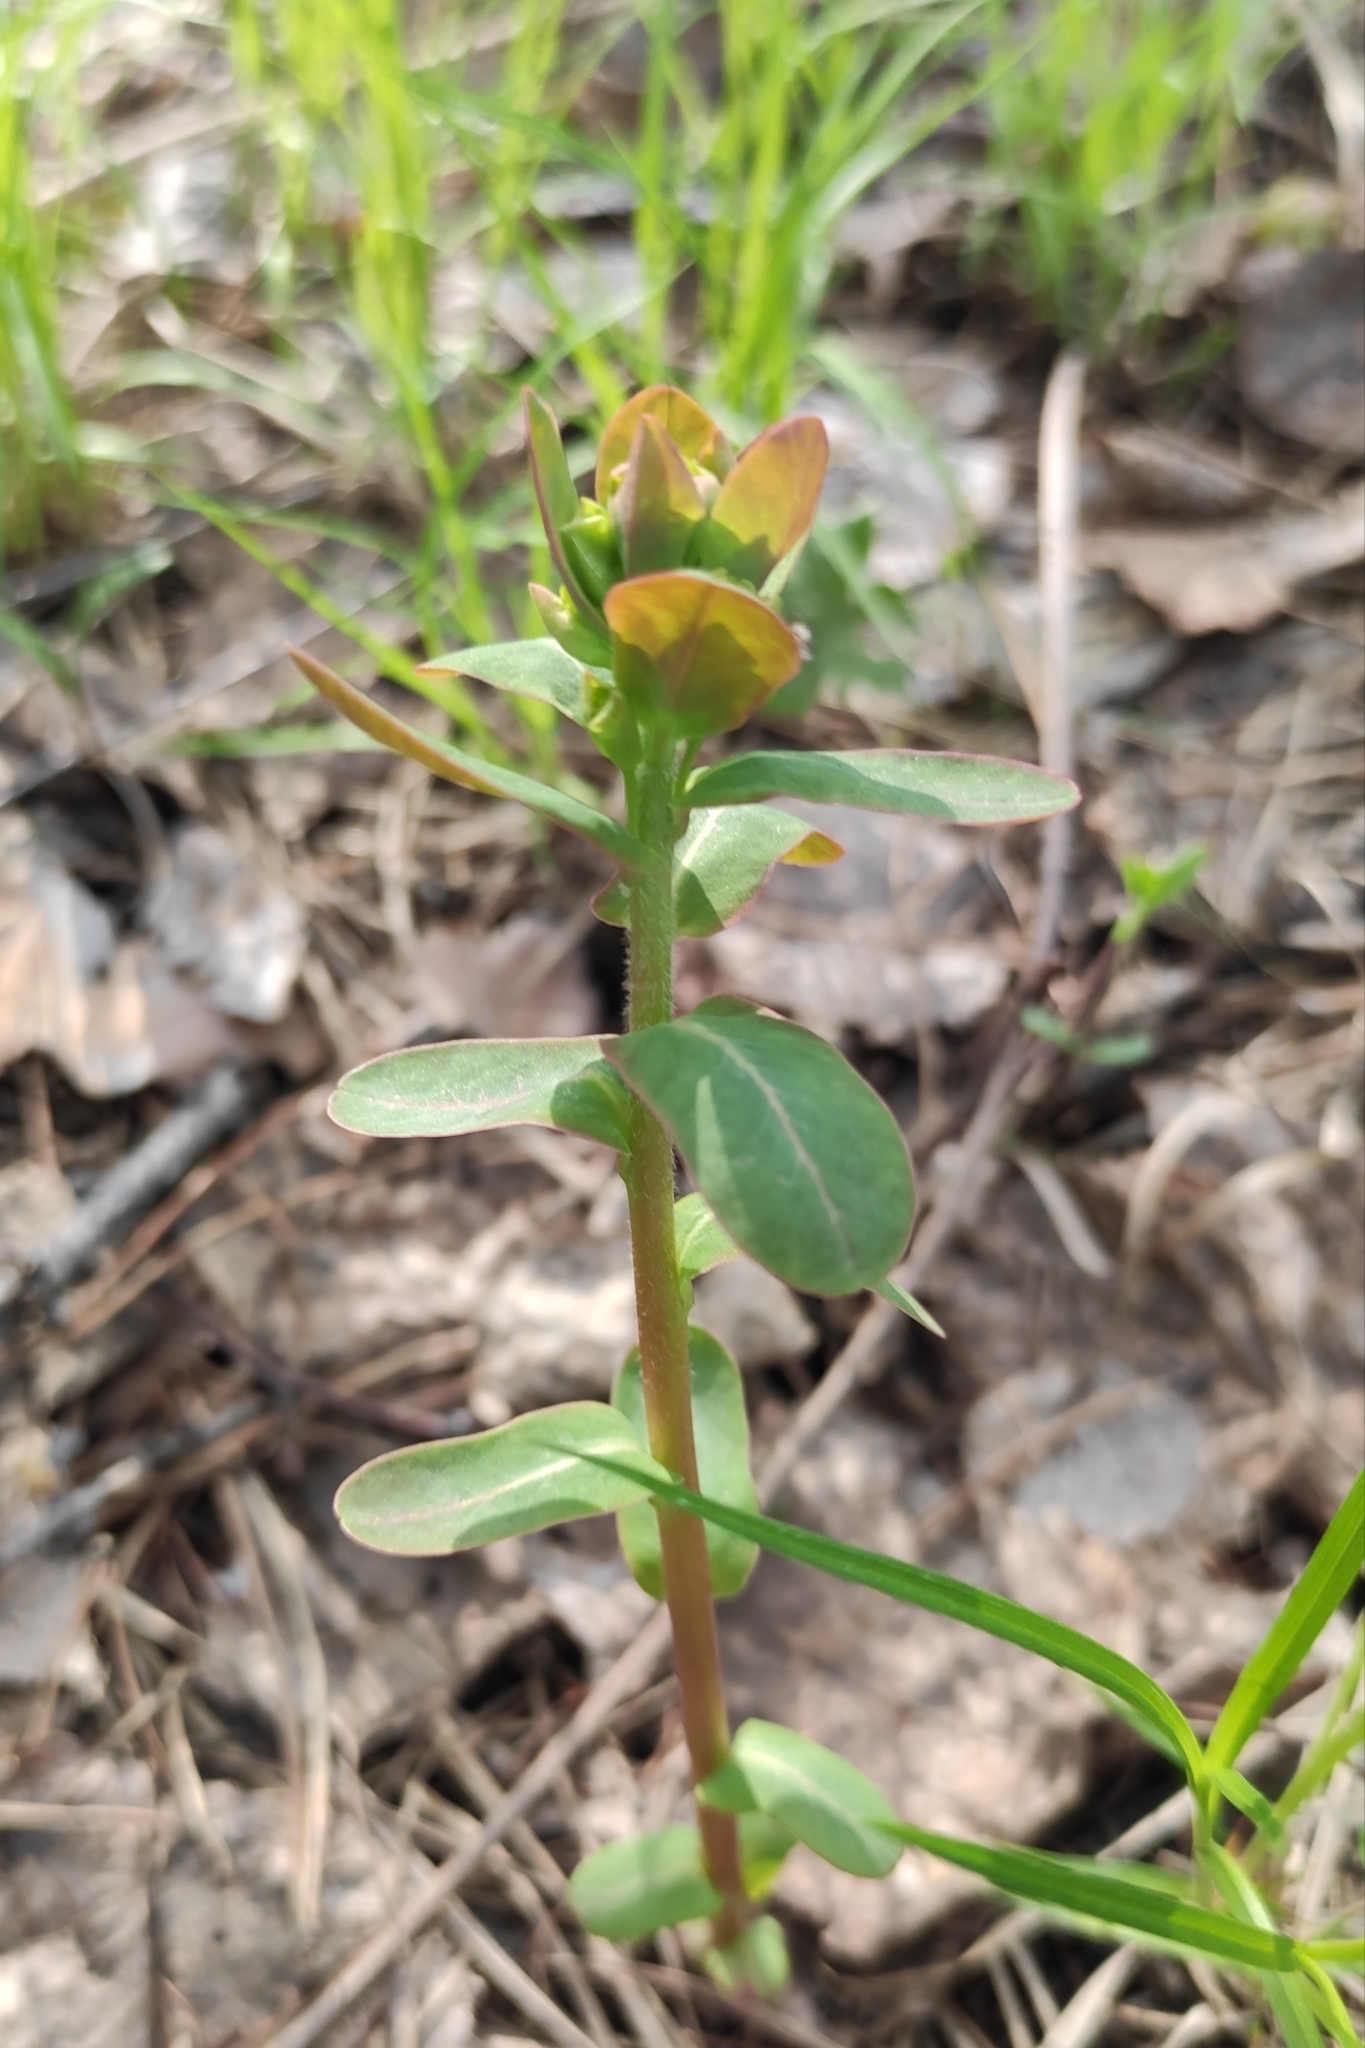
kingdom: Plantae
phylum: Tracheophyta
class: Magnoliopsida
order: Malpighiales
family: Euphorbiaceae
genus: Euphorbia
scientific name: Euphorbia jenisseiensis
